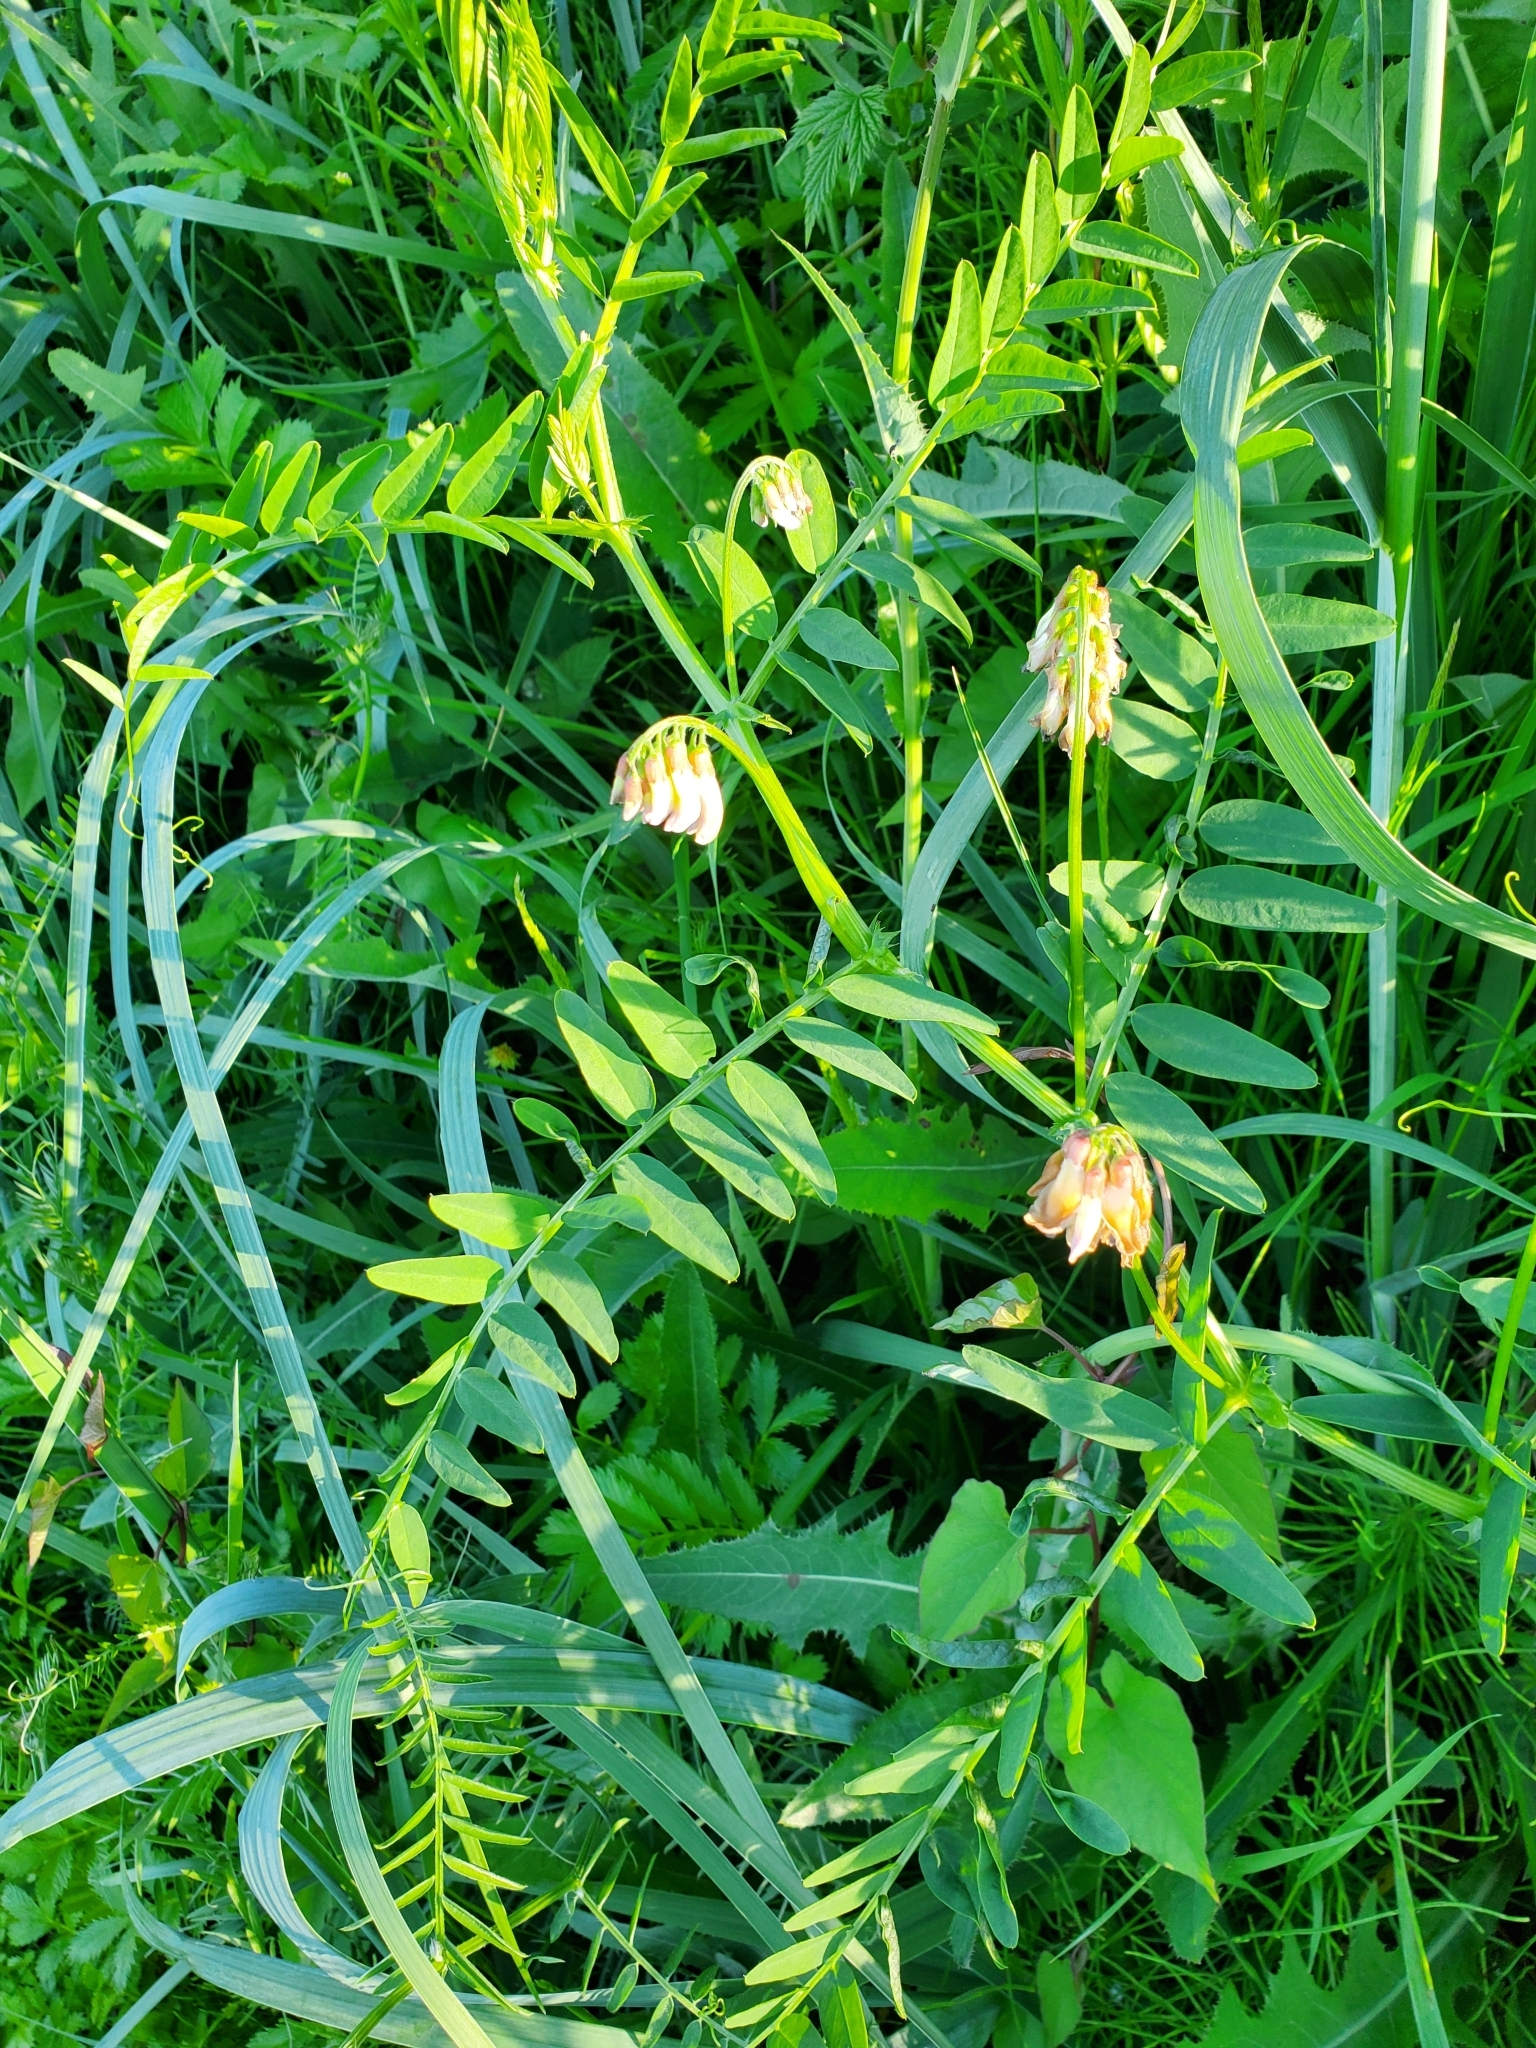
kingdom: Plantae
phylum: Tracheophyta
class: Magnoliopsida
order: Fabales
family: Fabaceae
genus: Vicia
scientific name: Vicia
